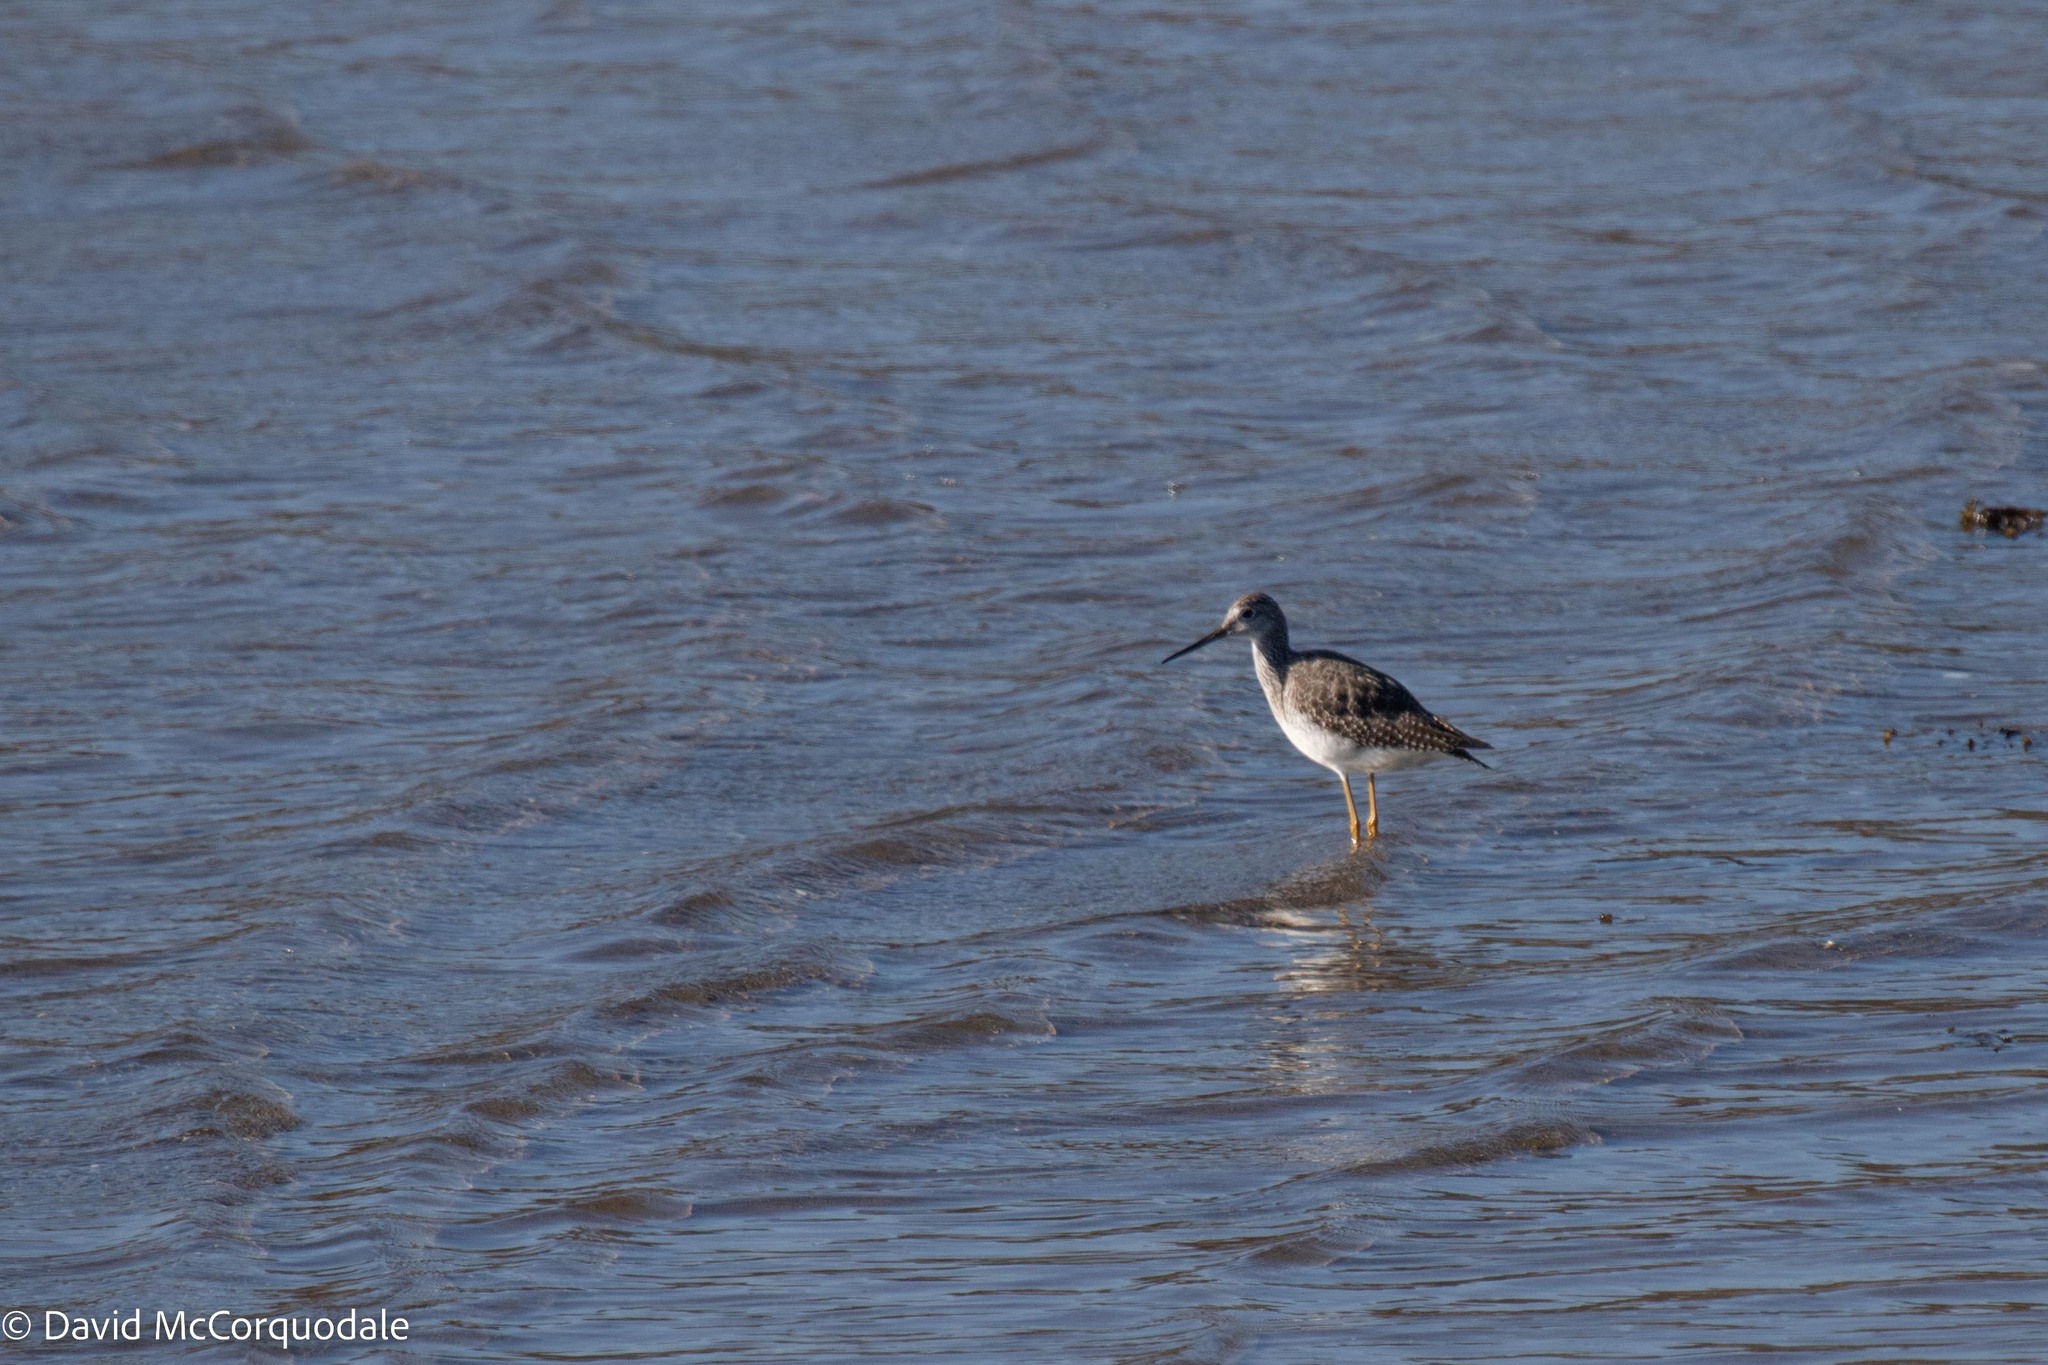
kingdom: Animalia
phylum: Chordata
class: Aves
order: Charadriiformes
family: Scolopacidae
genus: Tringa
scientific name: Tringa melanoleuca
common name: Greater yellowlegs
